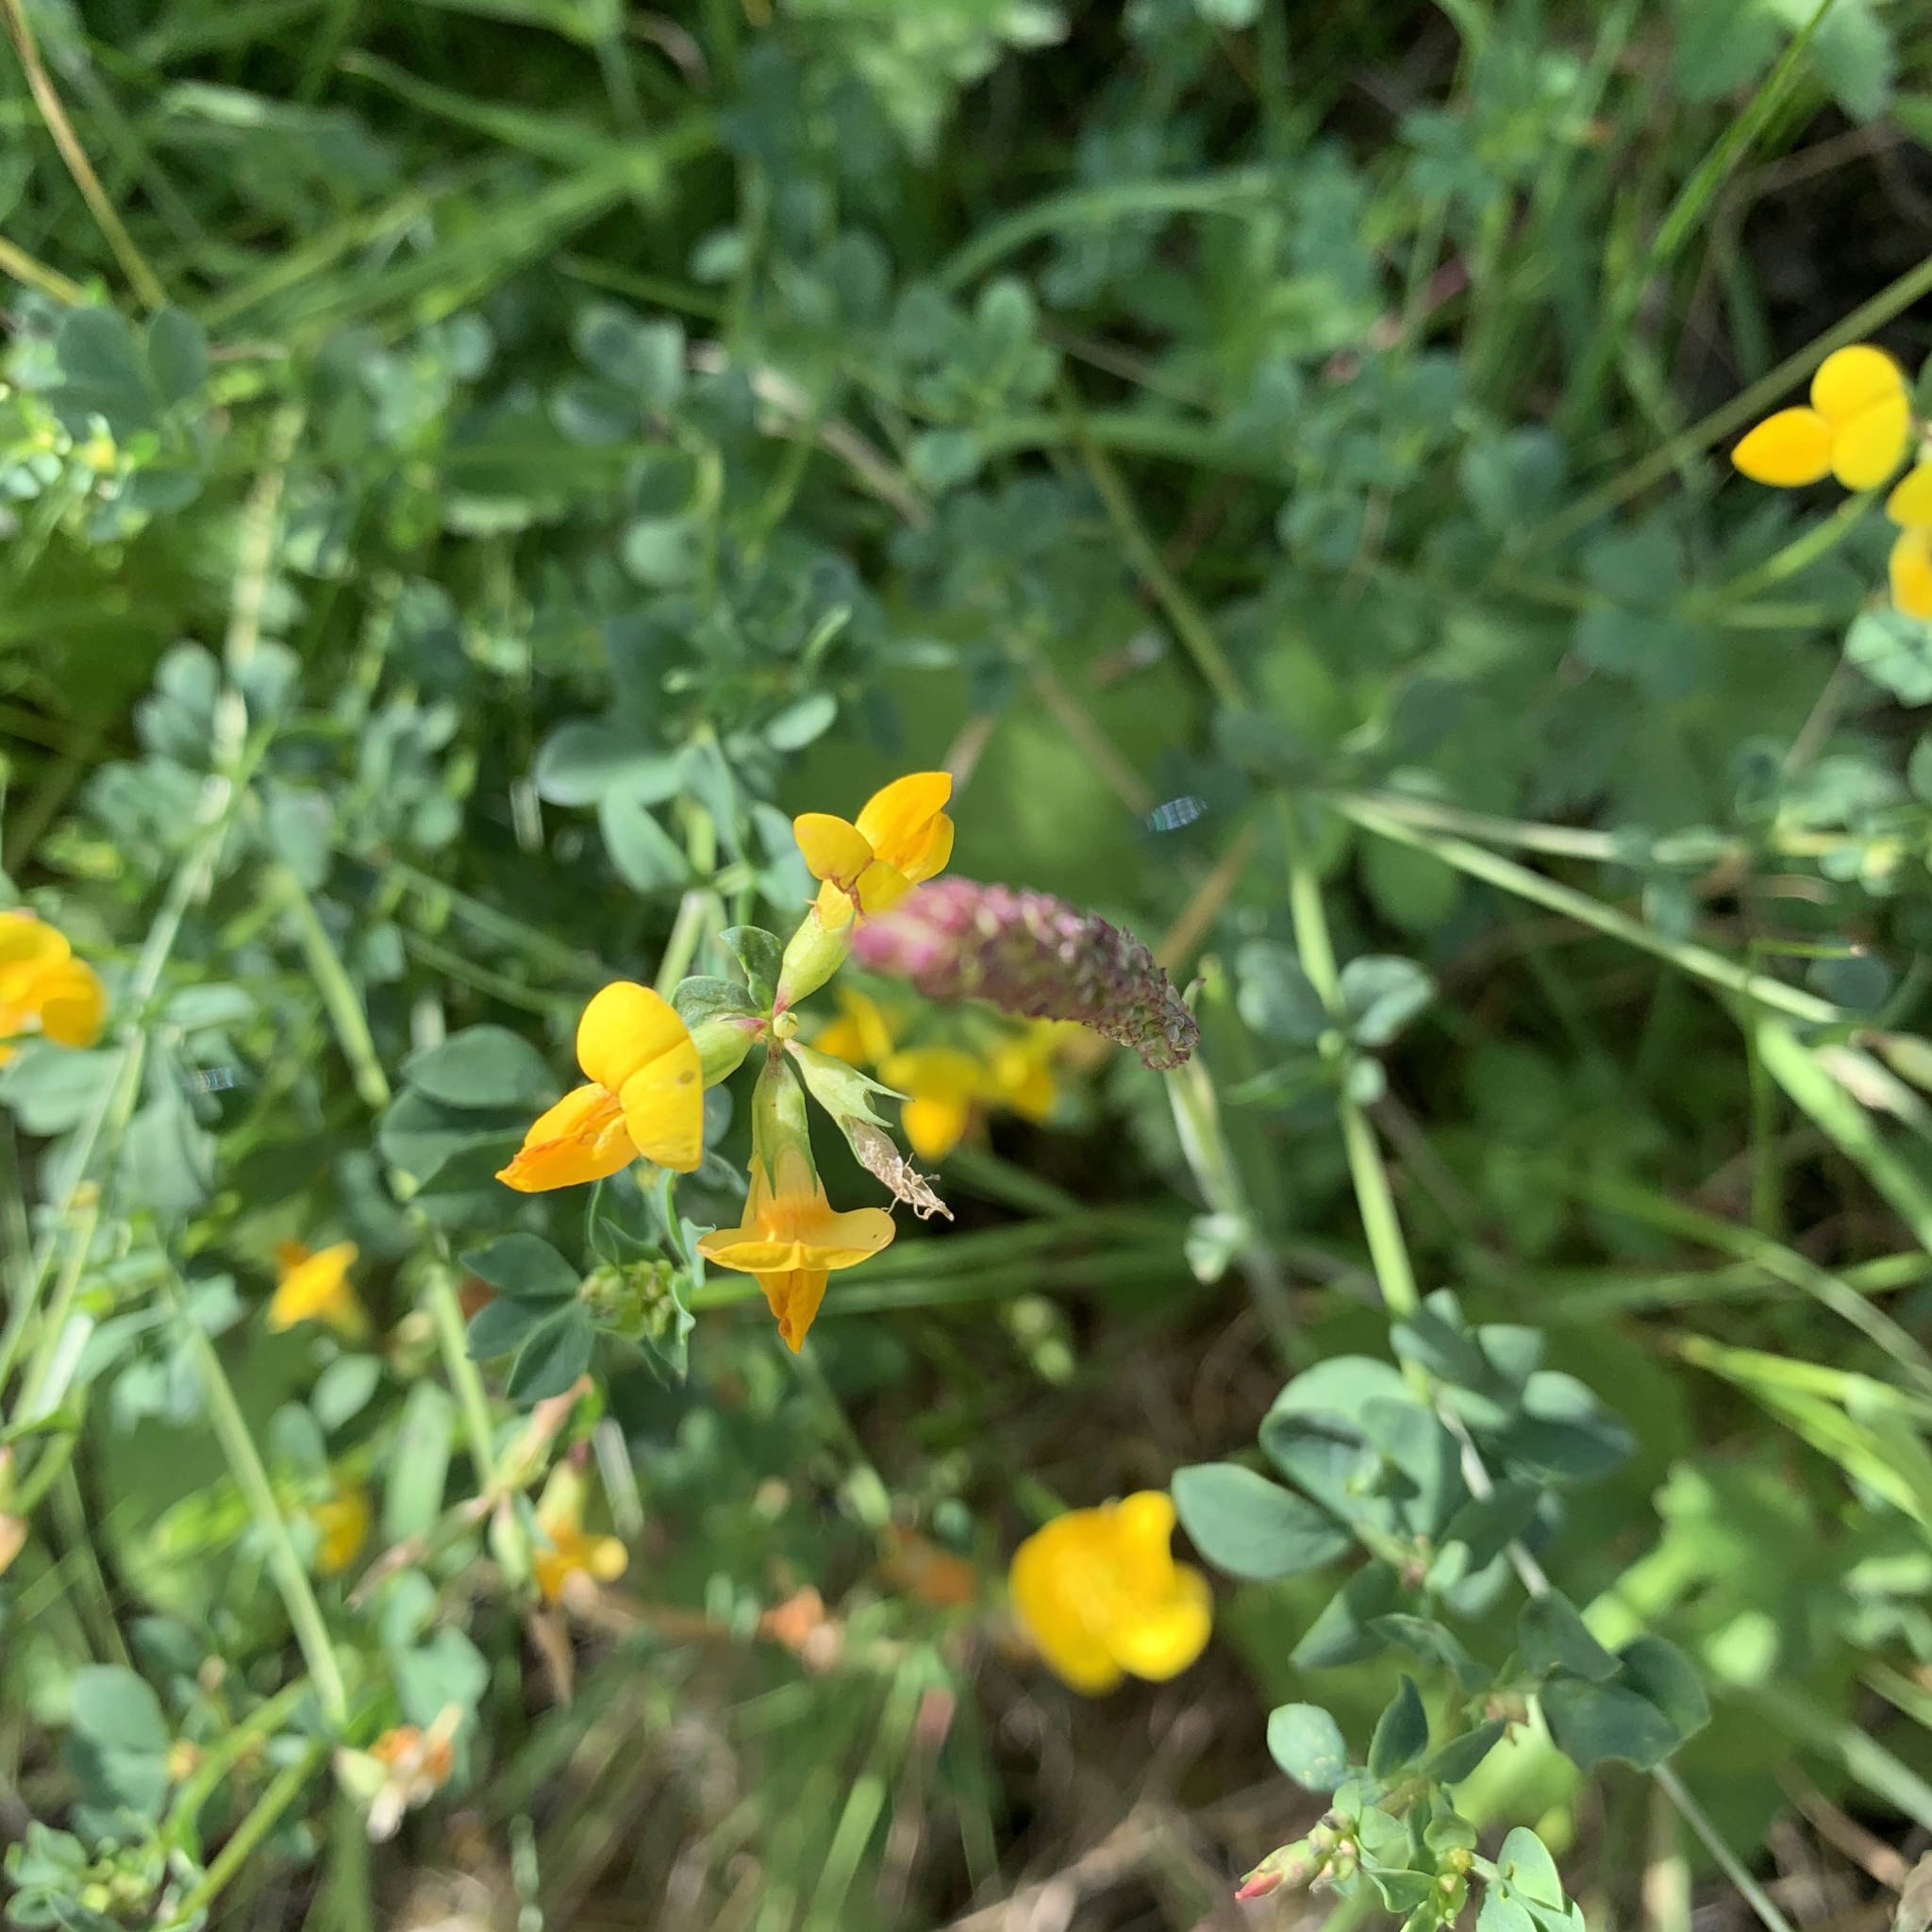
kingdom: Plantae
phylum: Tracheophyta
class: Magnoliopsida
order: Fabales
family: Fabaceae
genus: Lotus
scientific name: Lotus corniculatus
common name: Common bird's-foot-trefoil
